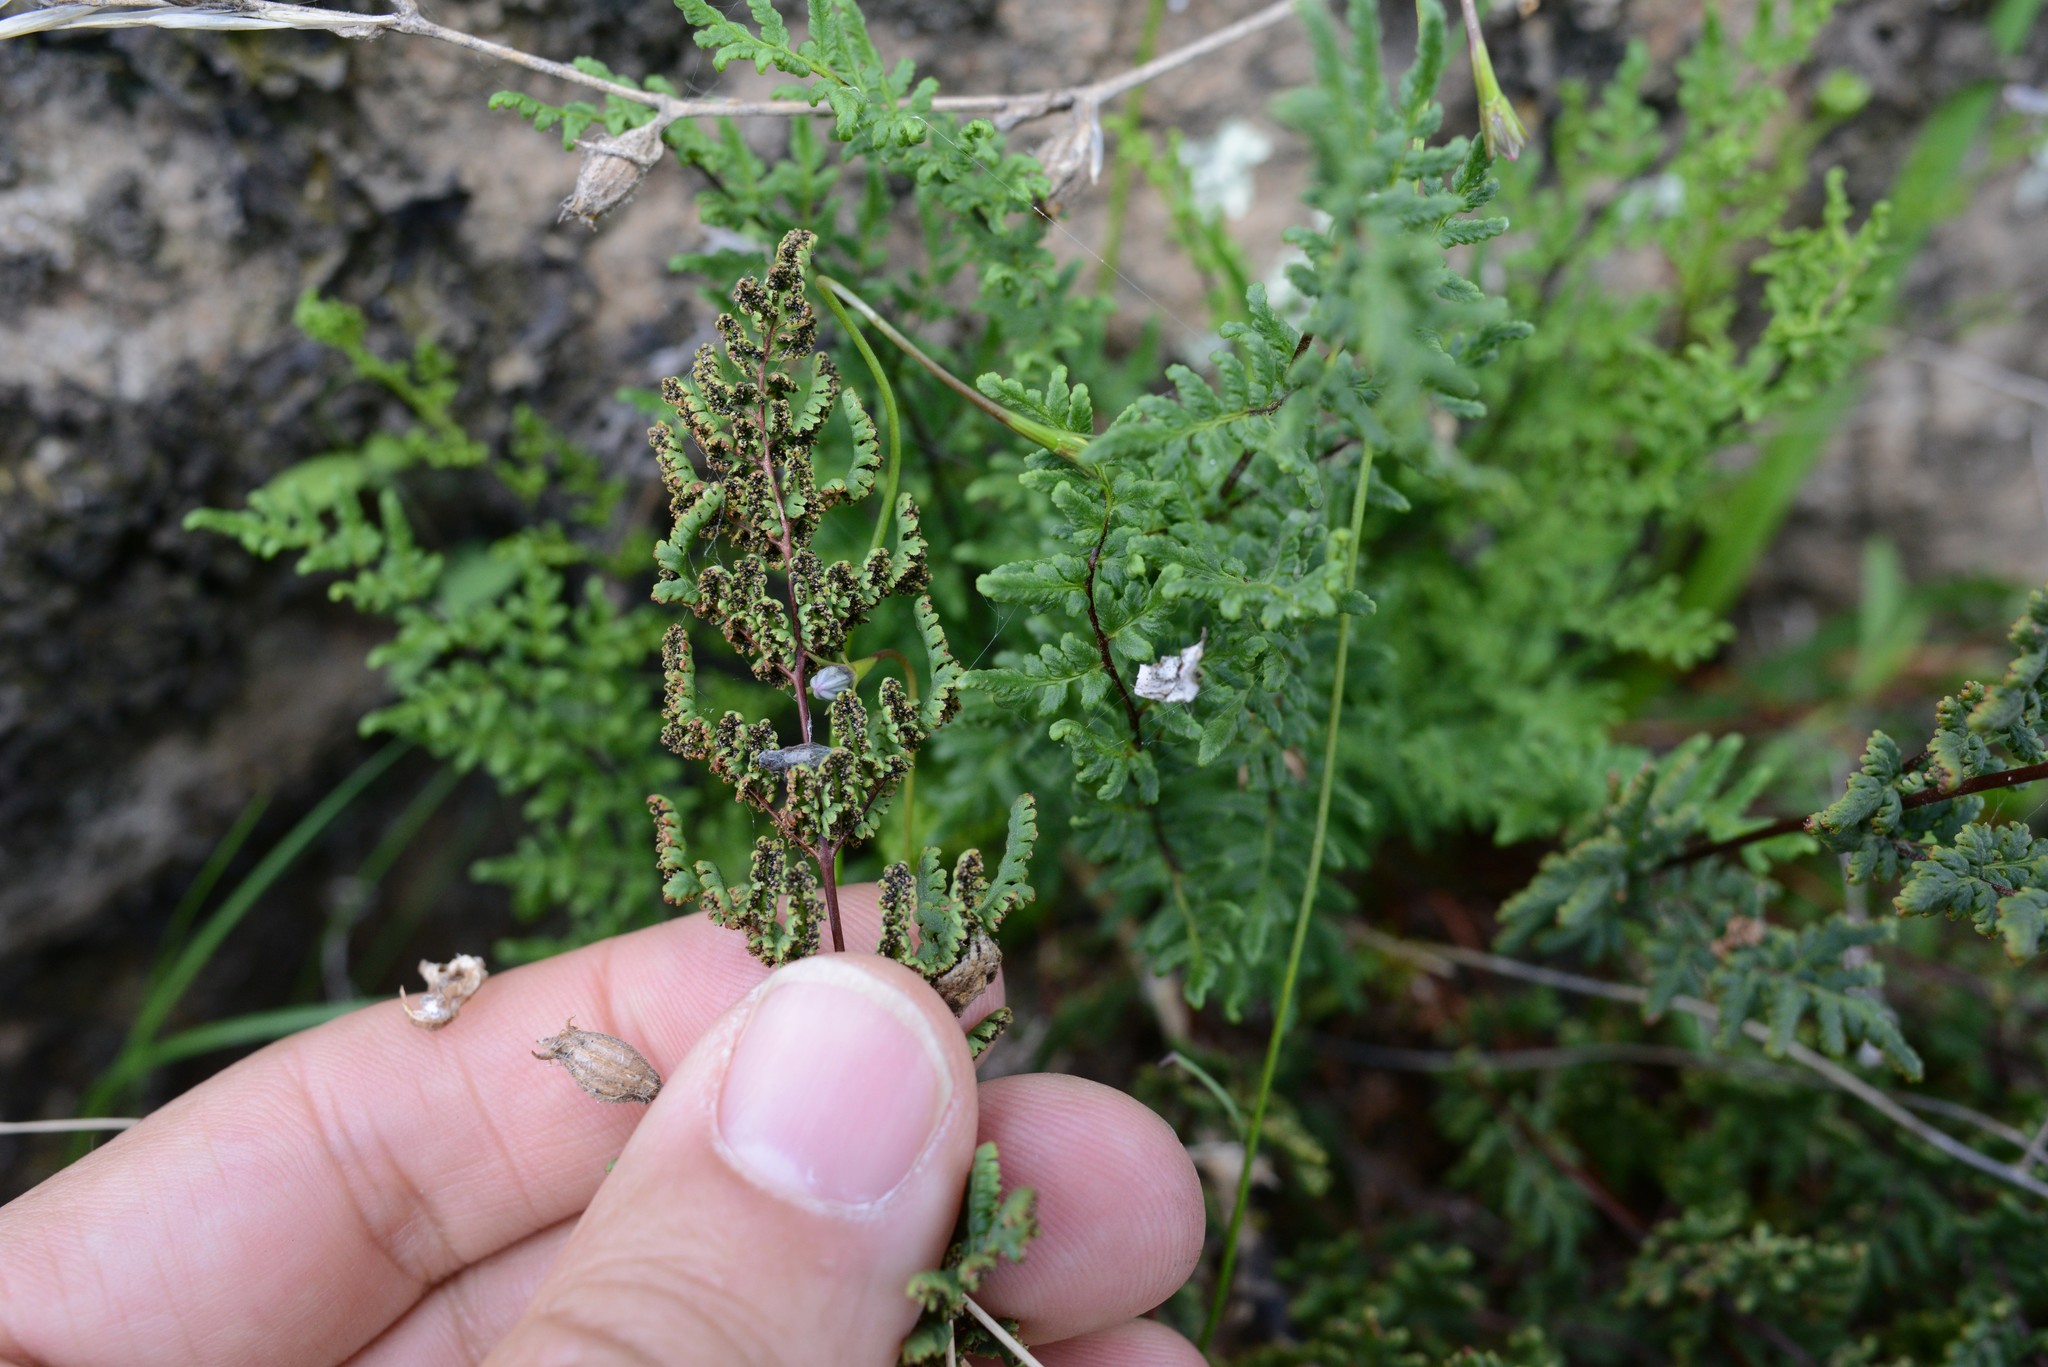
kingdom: Plantae
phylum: Tracheophyta
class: Polypodiopsida
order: Polypodiales
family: Pteridaceae
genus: Cheilanthes
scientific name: Cheilanthes sieberi
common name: Mulga fern
